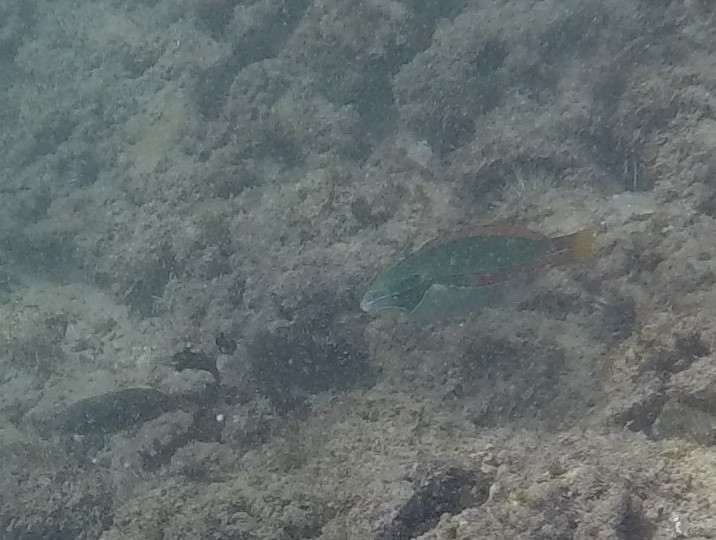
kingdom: Animalia
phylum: Chordata
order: Perciformes
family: Labridae
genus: Stethojulis
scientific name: Stethojulis balteata
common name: Belted wrasse
